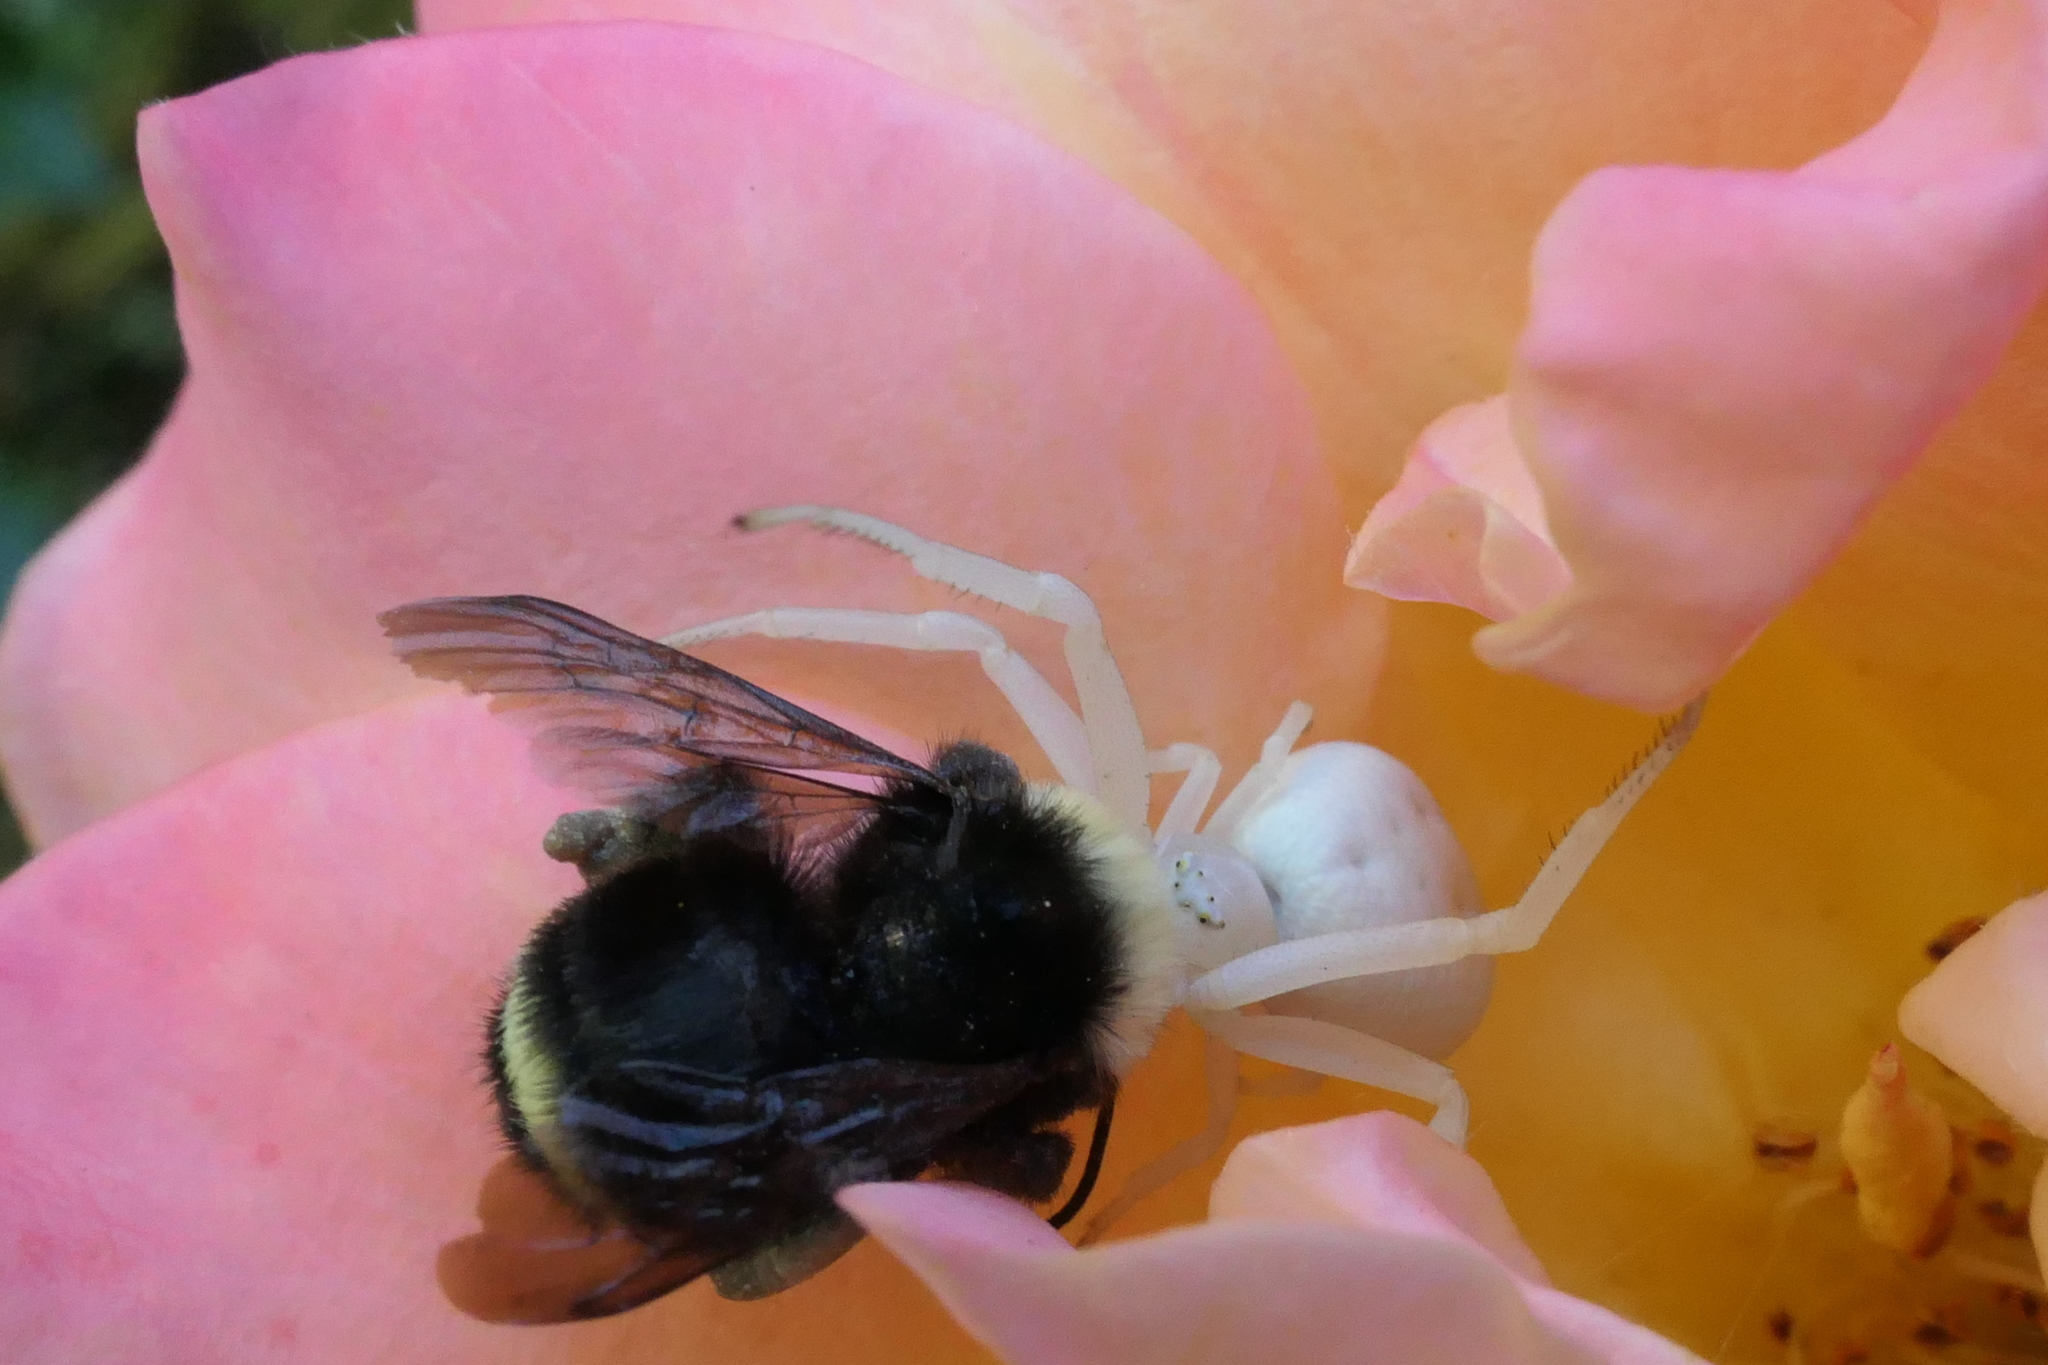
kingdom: Animalia
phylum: Arthropoda
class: Arachnida
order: Araneae
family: Thomisidae
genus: Misumena
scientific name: Misumena vatia
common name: Goldenrod crab spider
